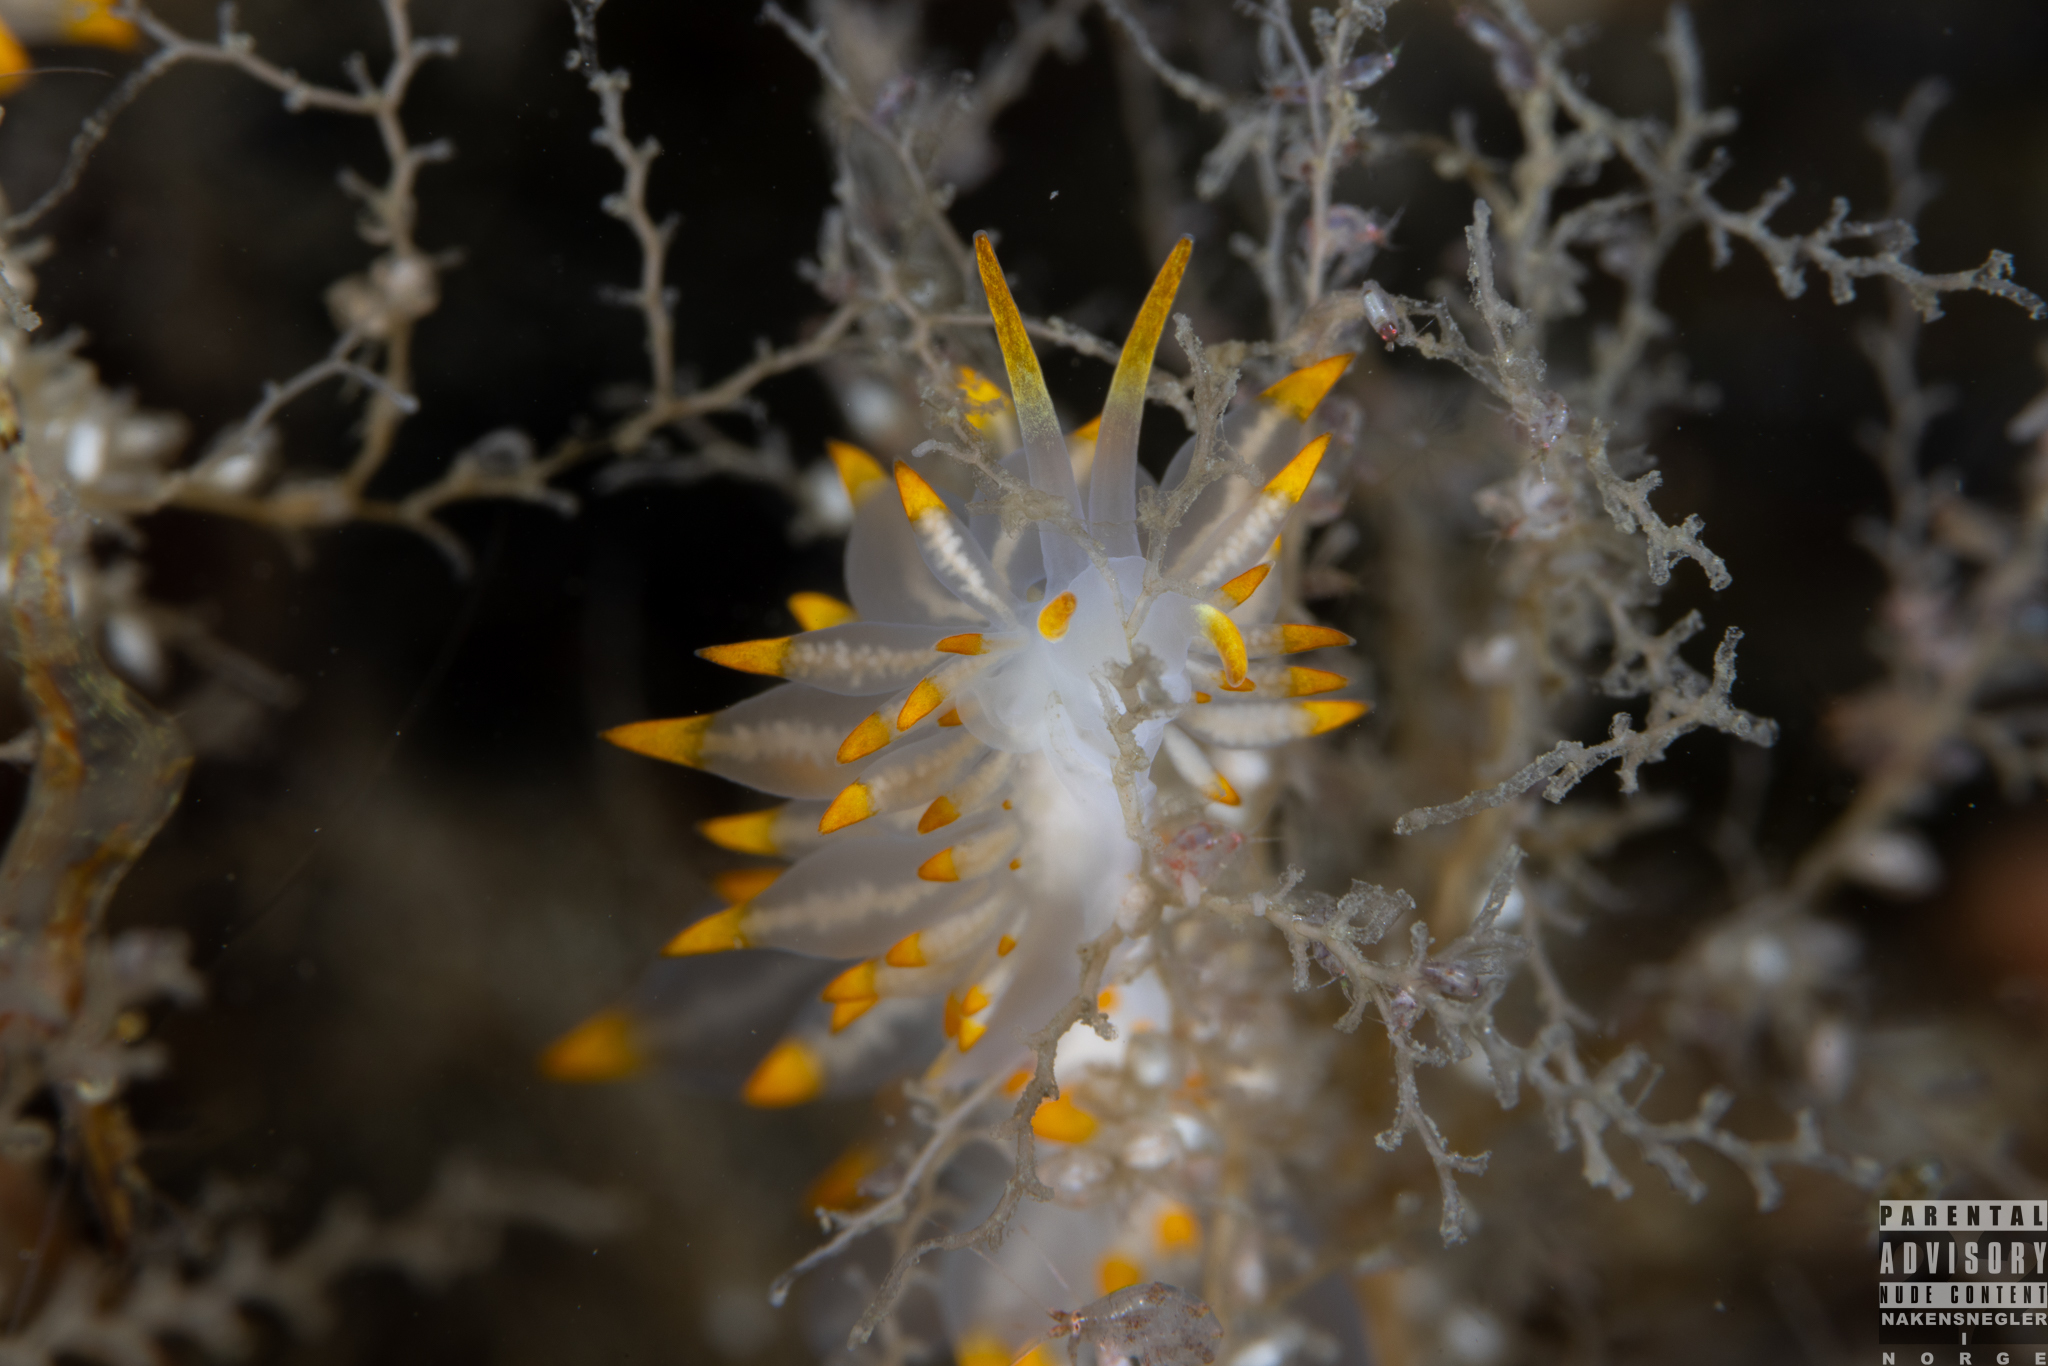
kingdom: Animalia
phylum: Mollusca
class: Gastropoda
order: Nudibranchia
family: Eubranchidae
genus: Amphorina
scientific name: Amphorina farrani
